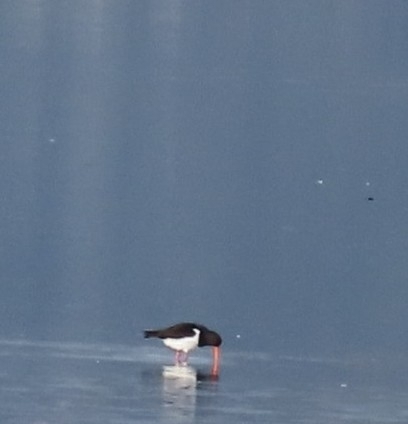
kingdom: Animalia
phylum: Chordata
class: Aves
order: Charadriiformes
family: Haematopodidae
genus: Haematopus
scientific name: Haematopus finschi
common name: South island oystercatcher
